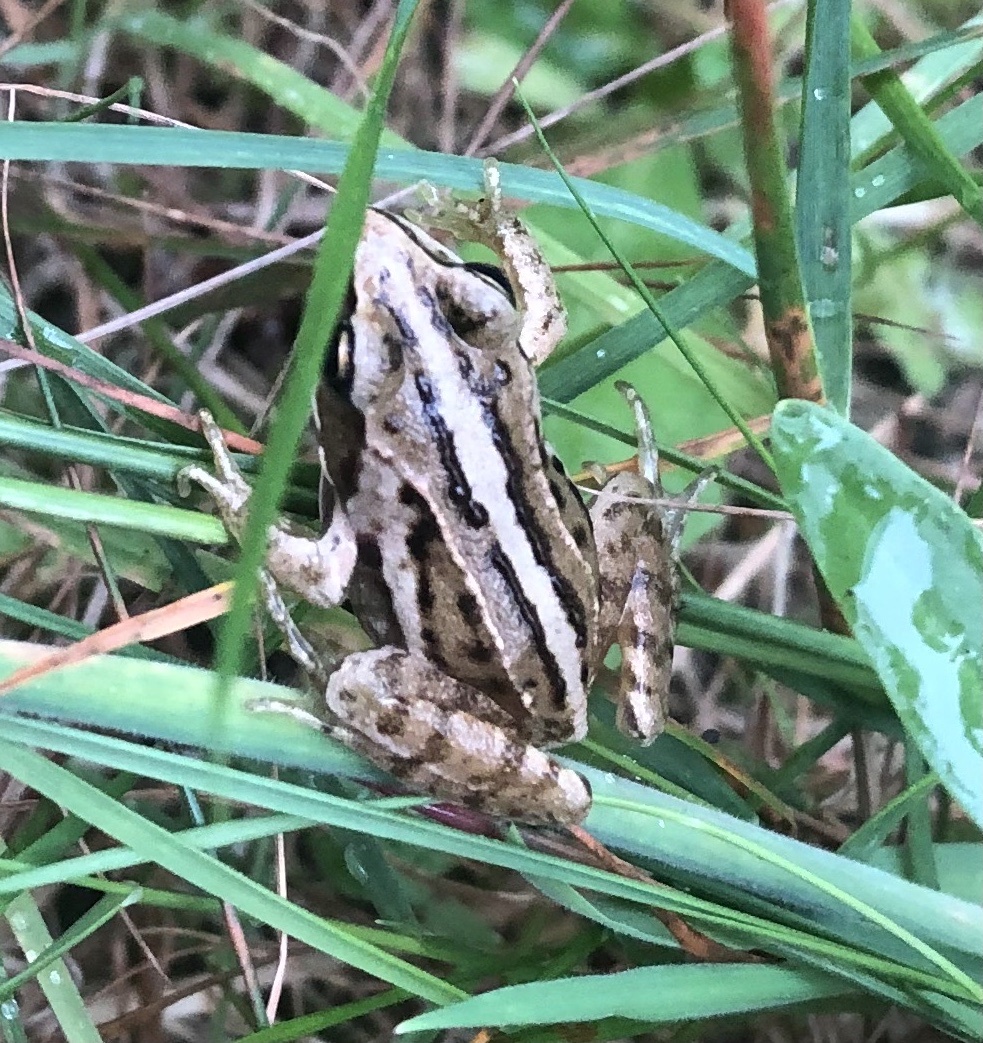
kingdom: Animalia
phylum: Chordata
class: Amphibia
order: Anura
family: Ranidae
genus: Rana
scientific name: Rana arvalis
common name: Moor frog
